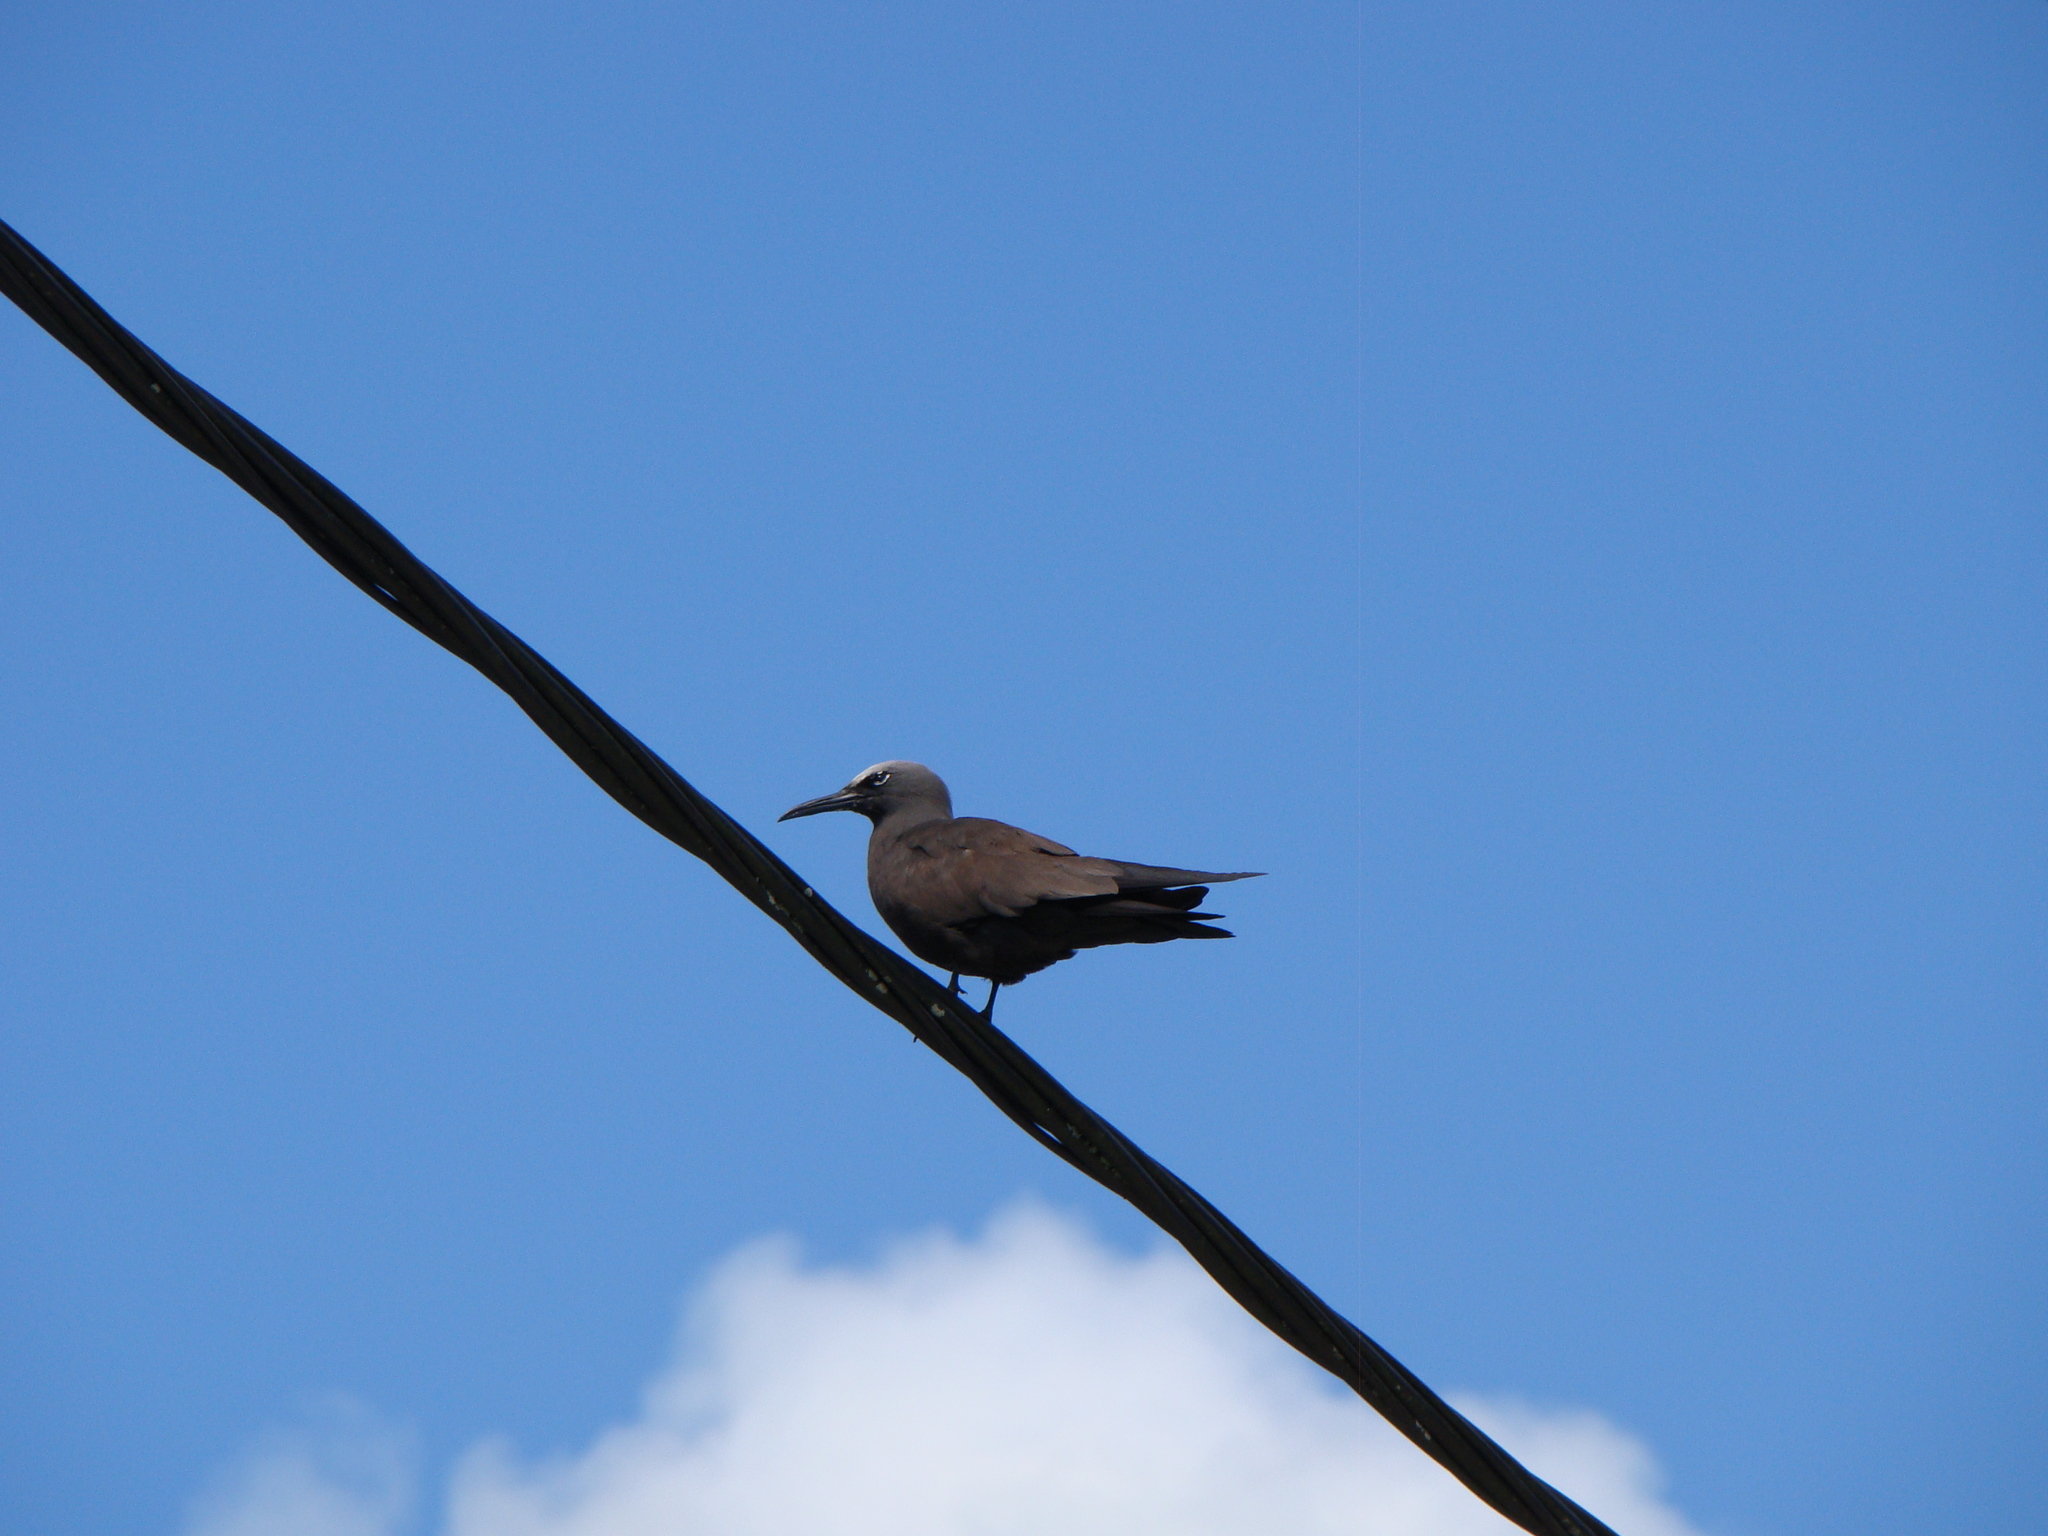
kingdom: Animalia
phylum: Chordata
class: Aves
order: Charadriiformes
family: Laridae
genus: Anous
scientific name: Anous stolidus
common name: Brown noddy
